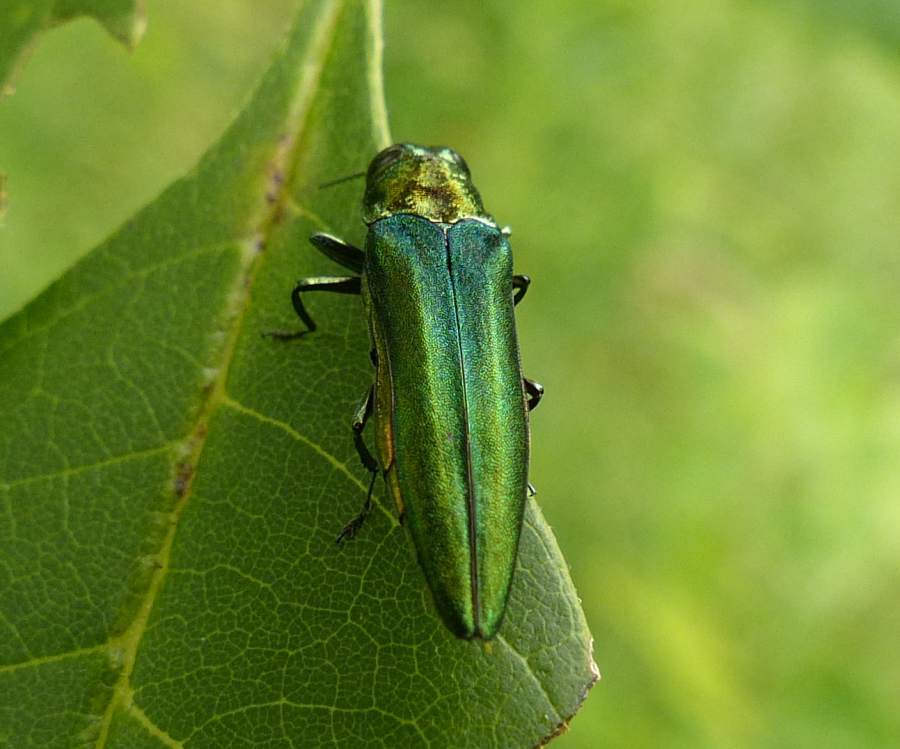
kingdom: Animalia
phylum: Arthropoda
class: Insecta
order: Coleoptera
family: Buprestidae
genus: Agrilus
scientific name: Agrilus planipennis
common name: Emerald ash borer
